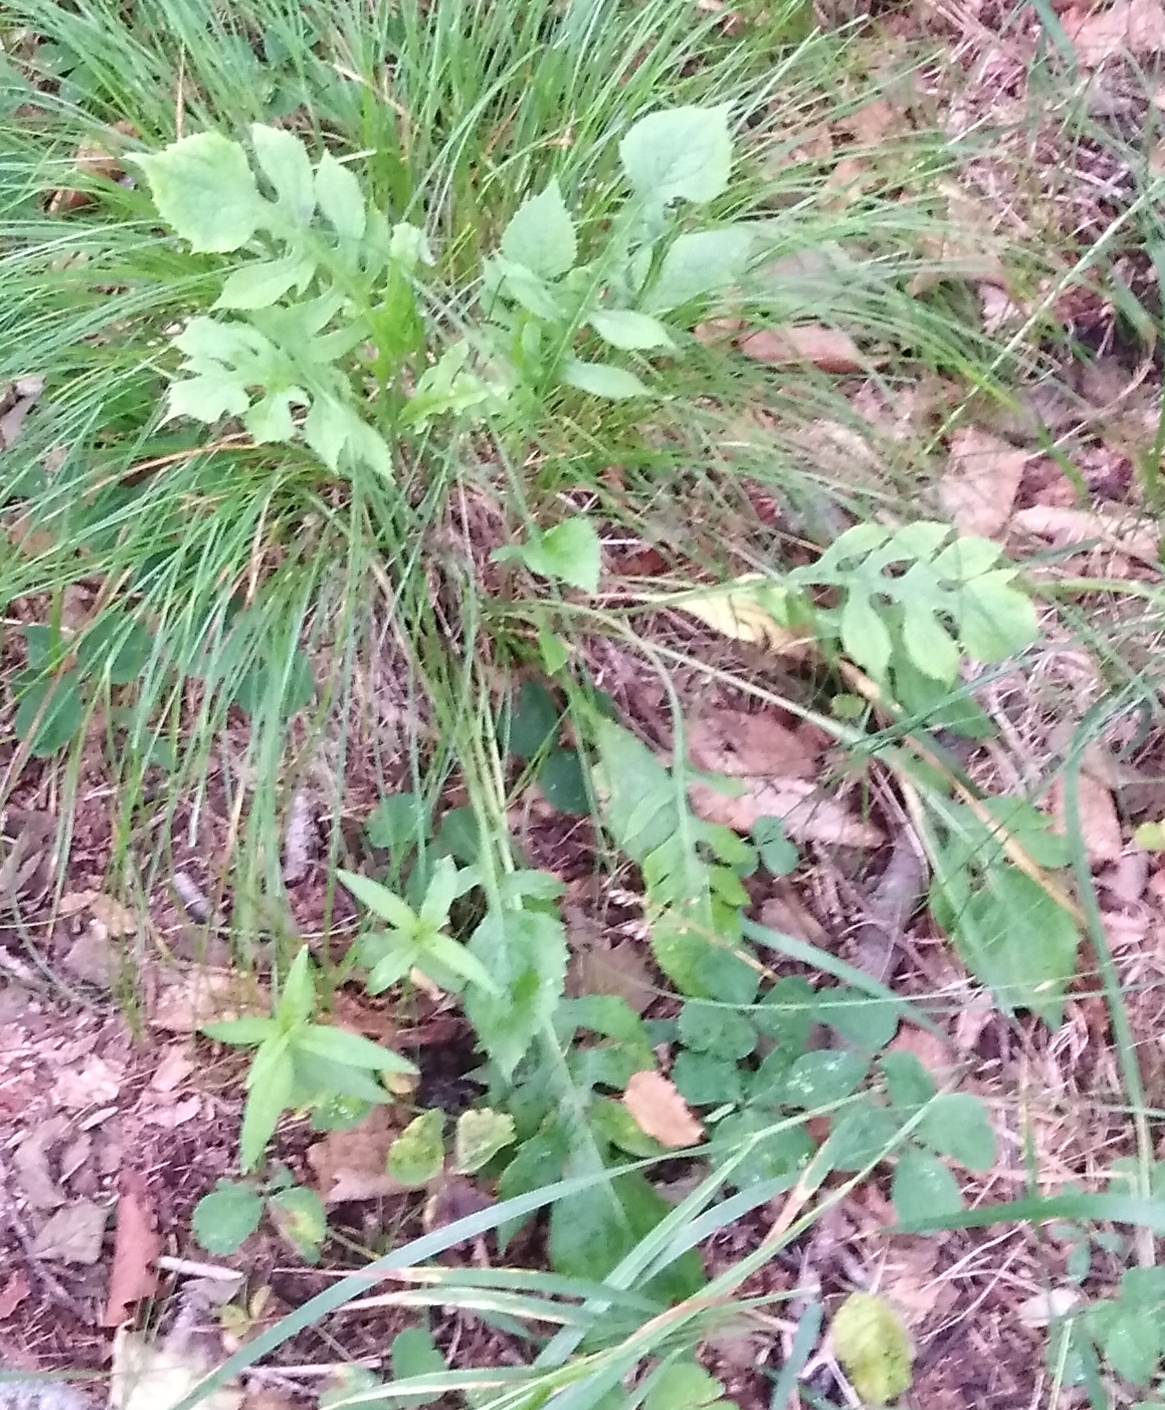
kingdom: Plantae
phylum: Tracheophyta
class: Magnoliopsida
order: Asterales
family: Asteraceae
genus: Saussurea
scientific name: Saussurea maximowiczii
